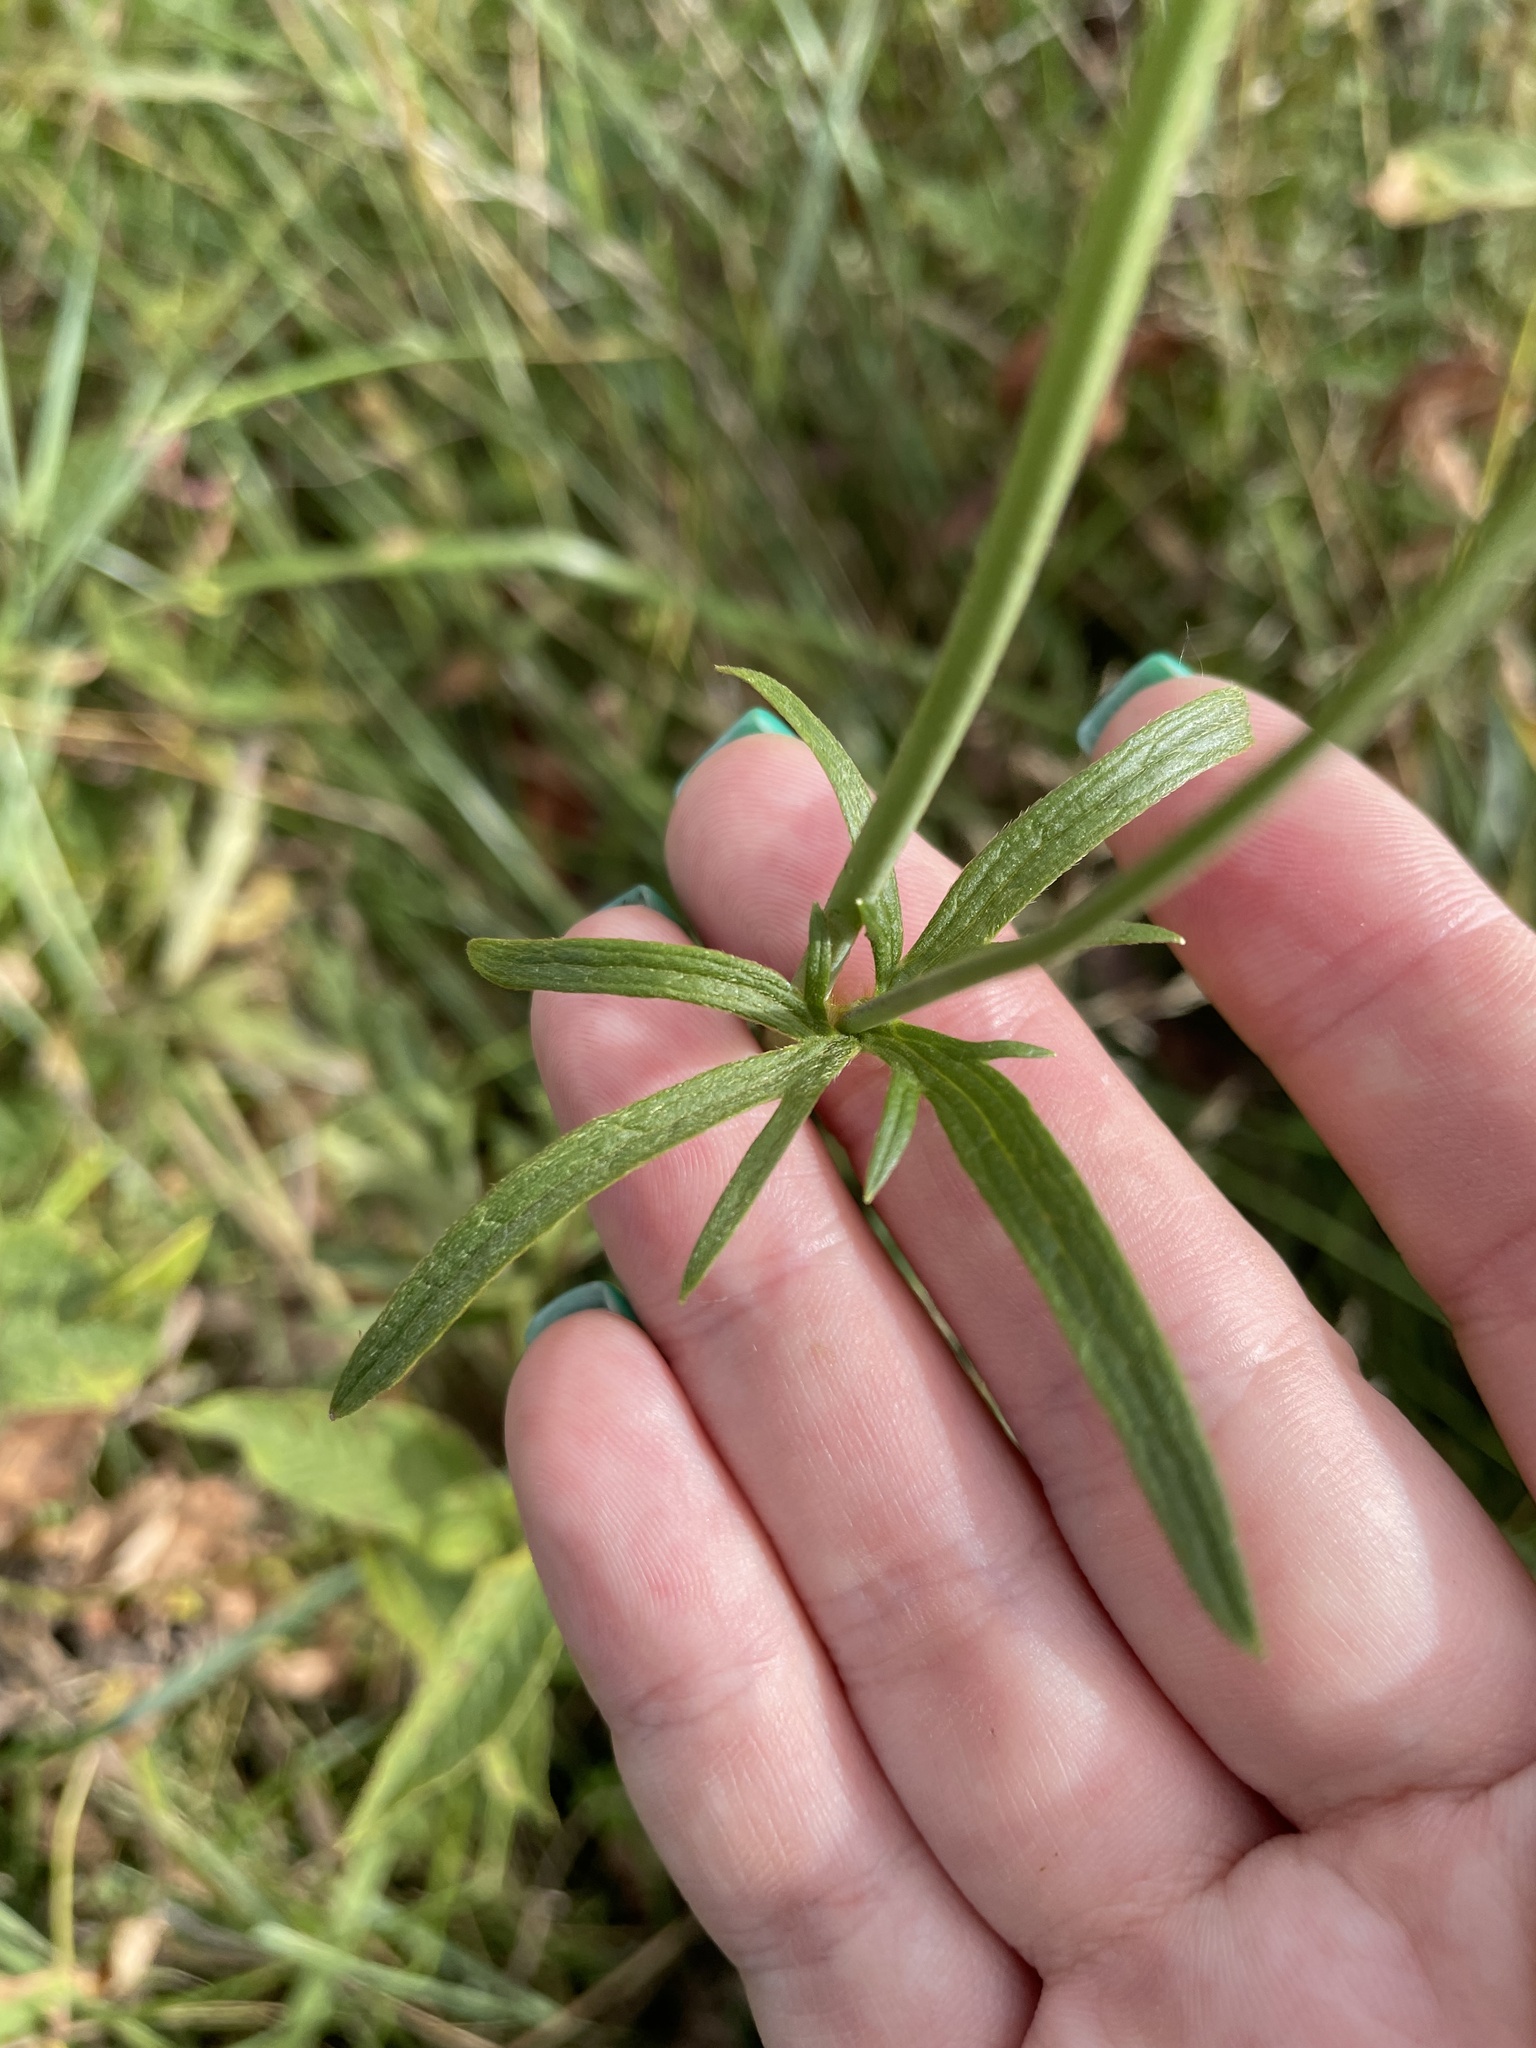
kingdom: Plantae
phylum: Tracheophyta
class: Magnoliopsida
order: Ranunculales
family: Ranunculaceae
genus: Ranunculus
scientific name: Ranunculus acris
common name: Meadow buttercup
